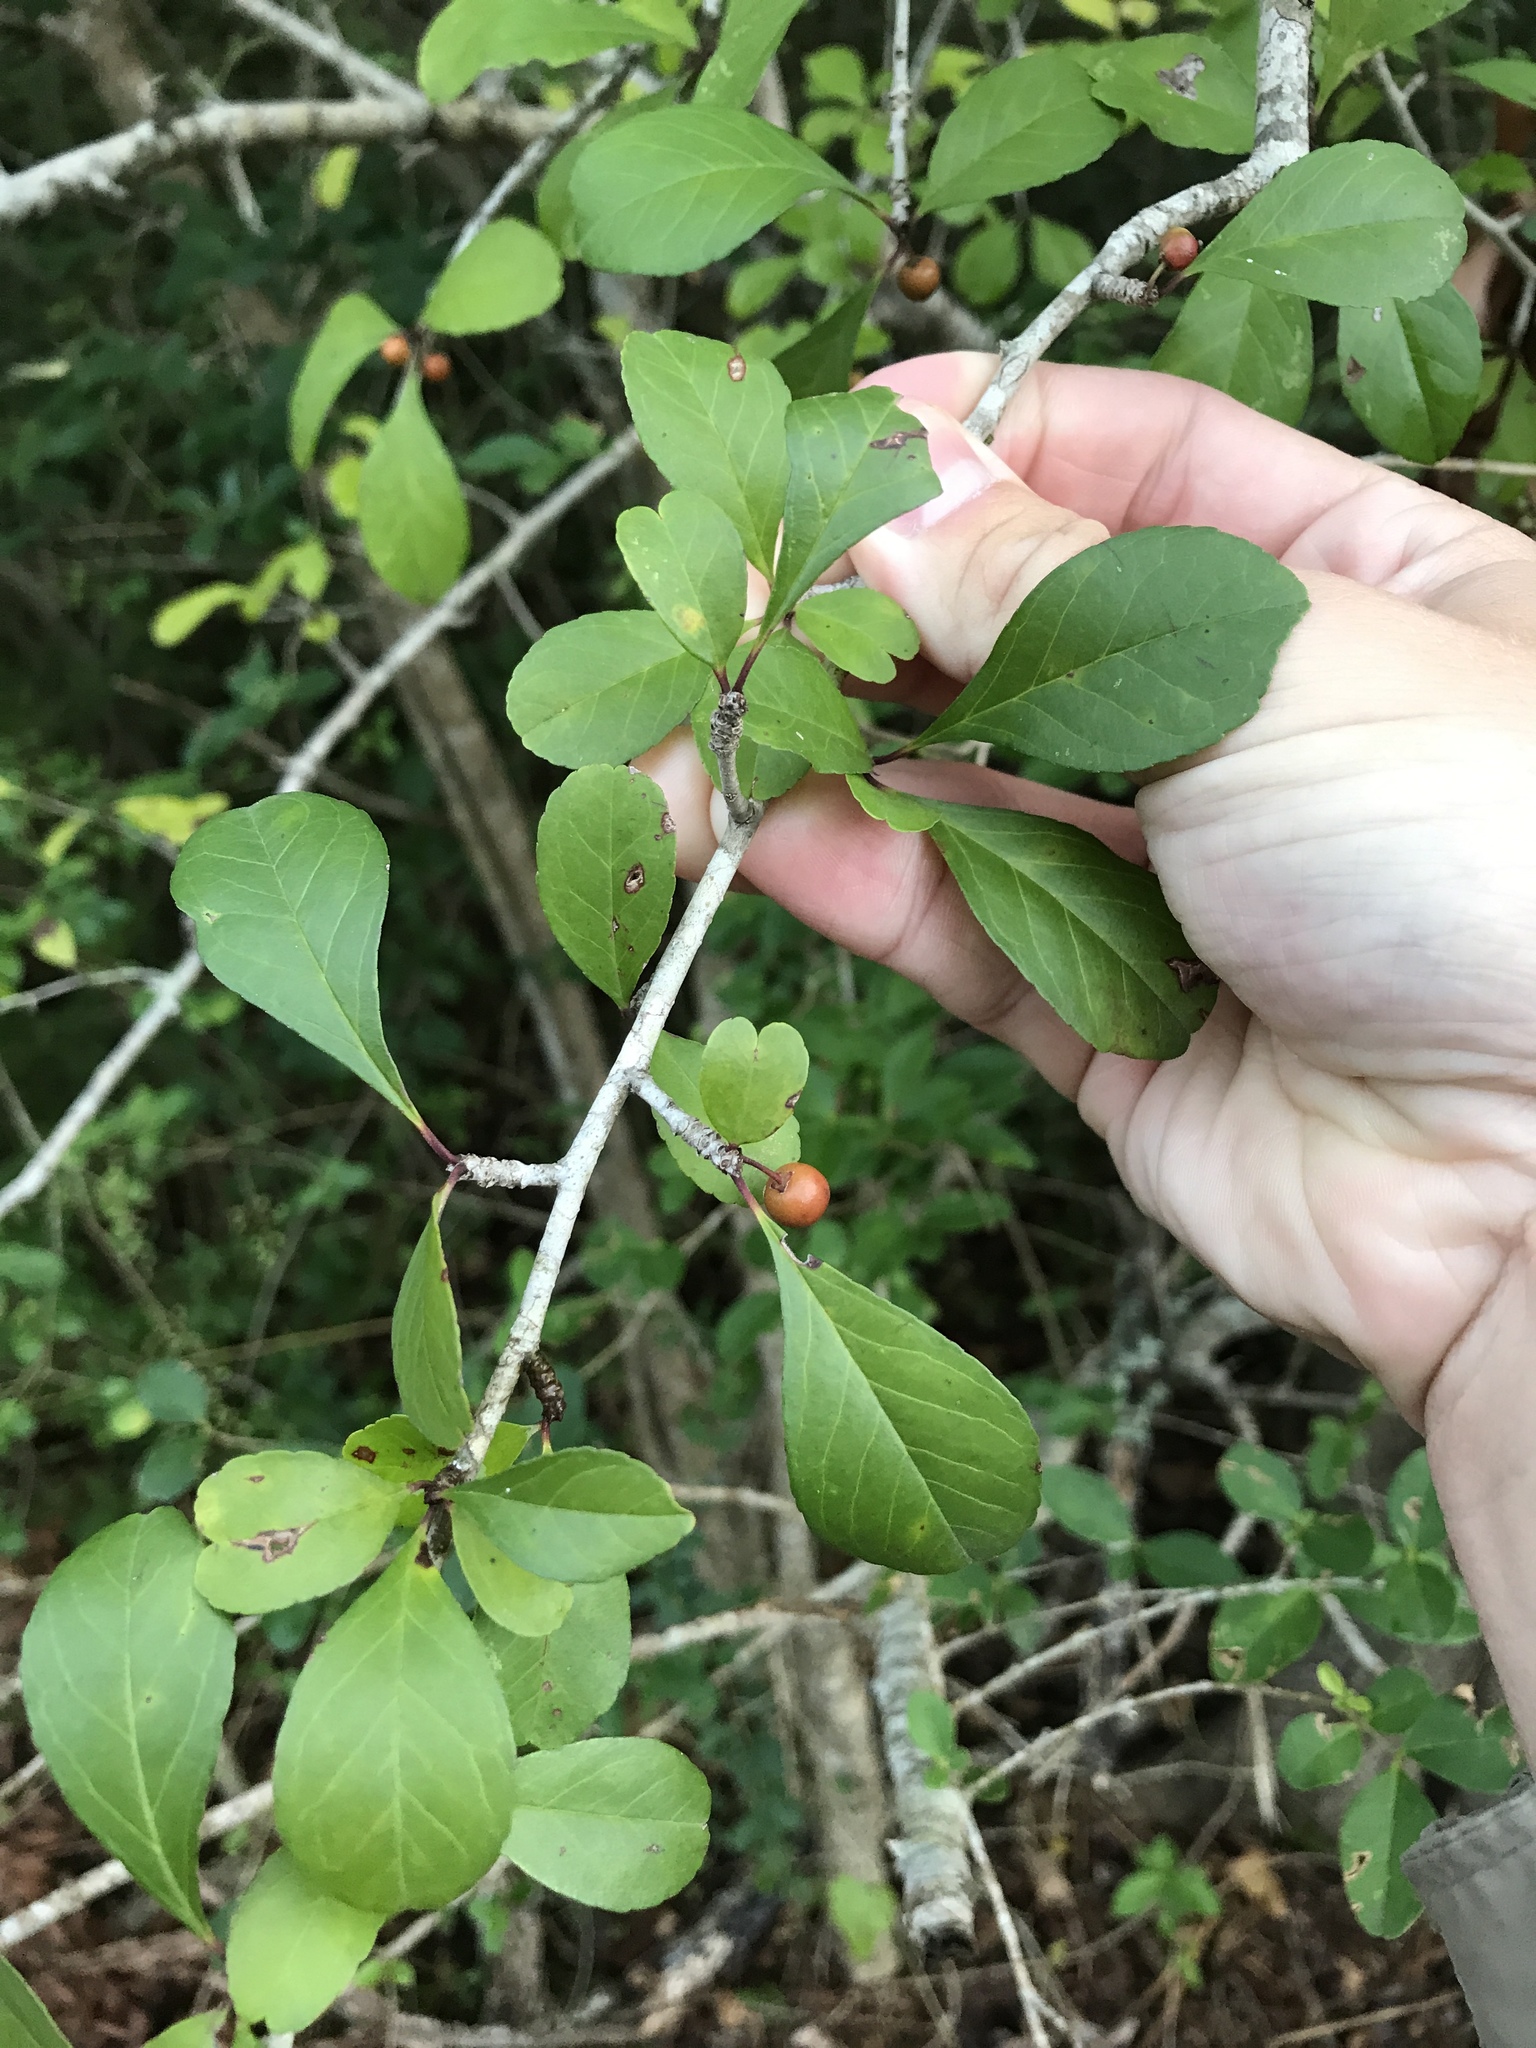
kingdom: Plantae
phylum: Tracheophyta
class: Magnoliopsida
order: Aquifoliales
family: Aquifoliaceae
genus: Ilex
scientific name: Ilex decidua
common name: Possum-haw
